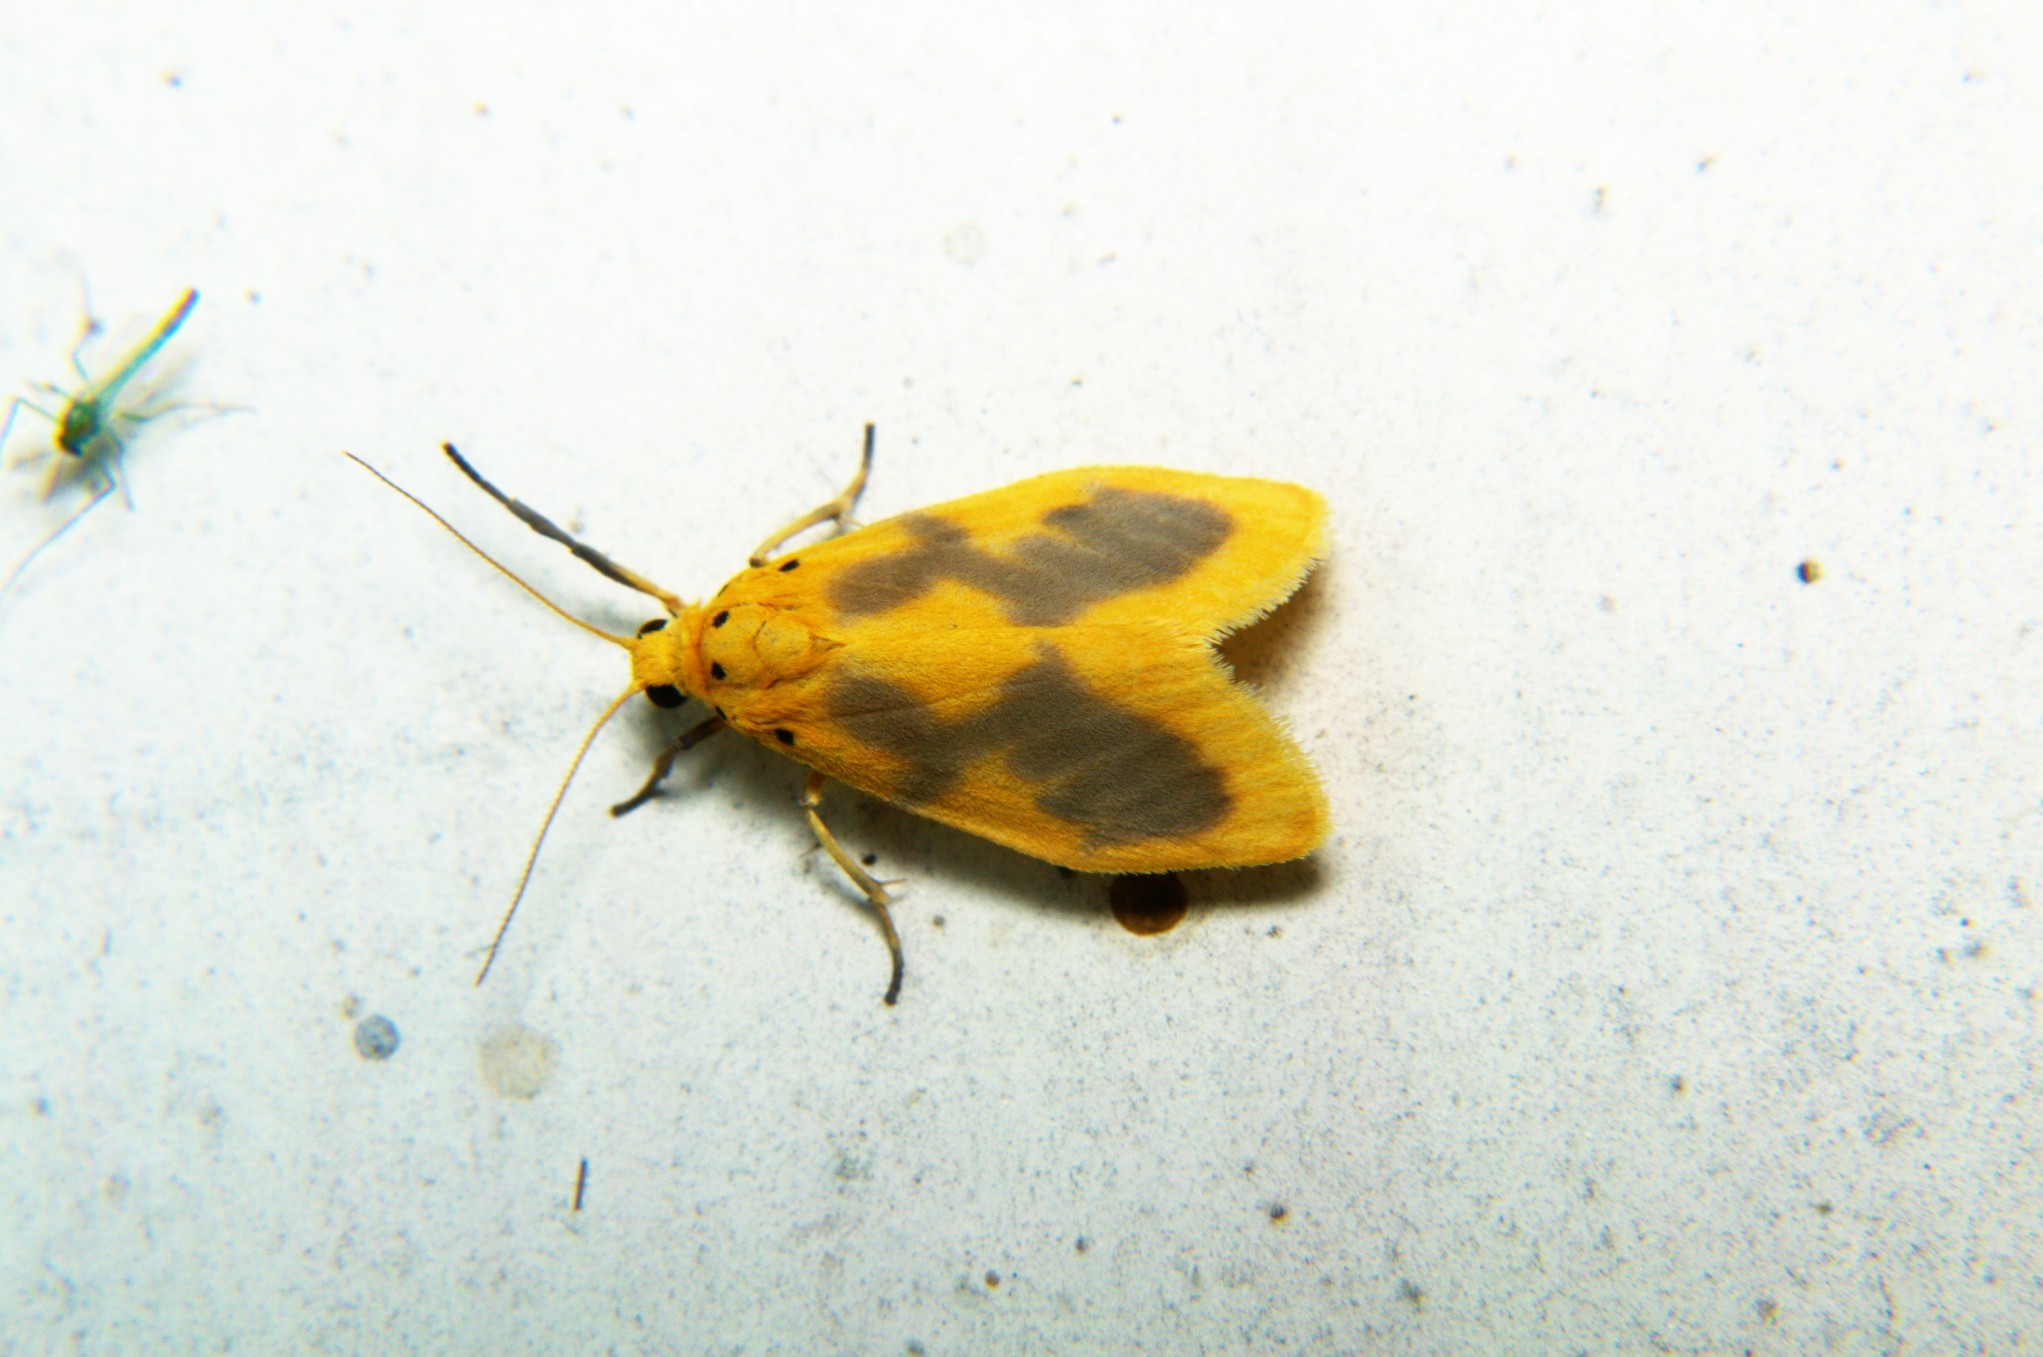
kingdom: Animalia
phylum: Arthropoda
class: Insecta
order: Lepidoptera
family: Erebidae
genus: Miltochrista
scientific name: Miltochrista undulata
